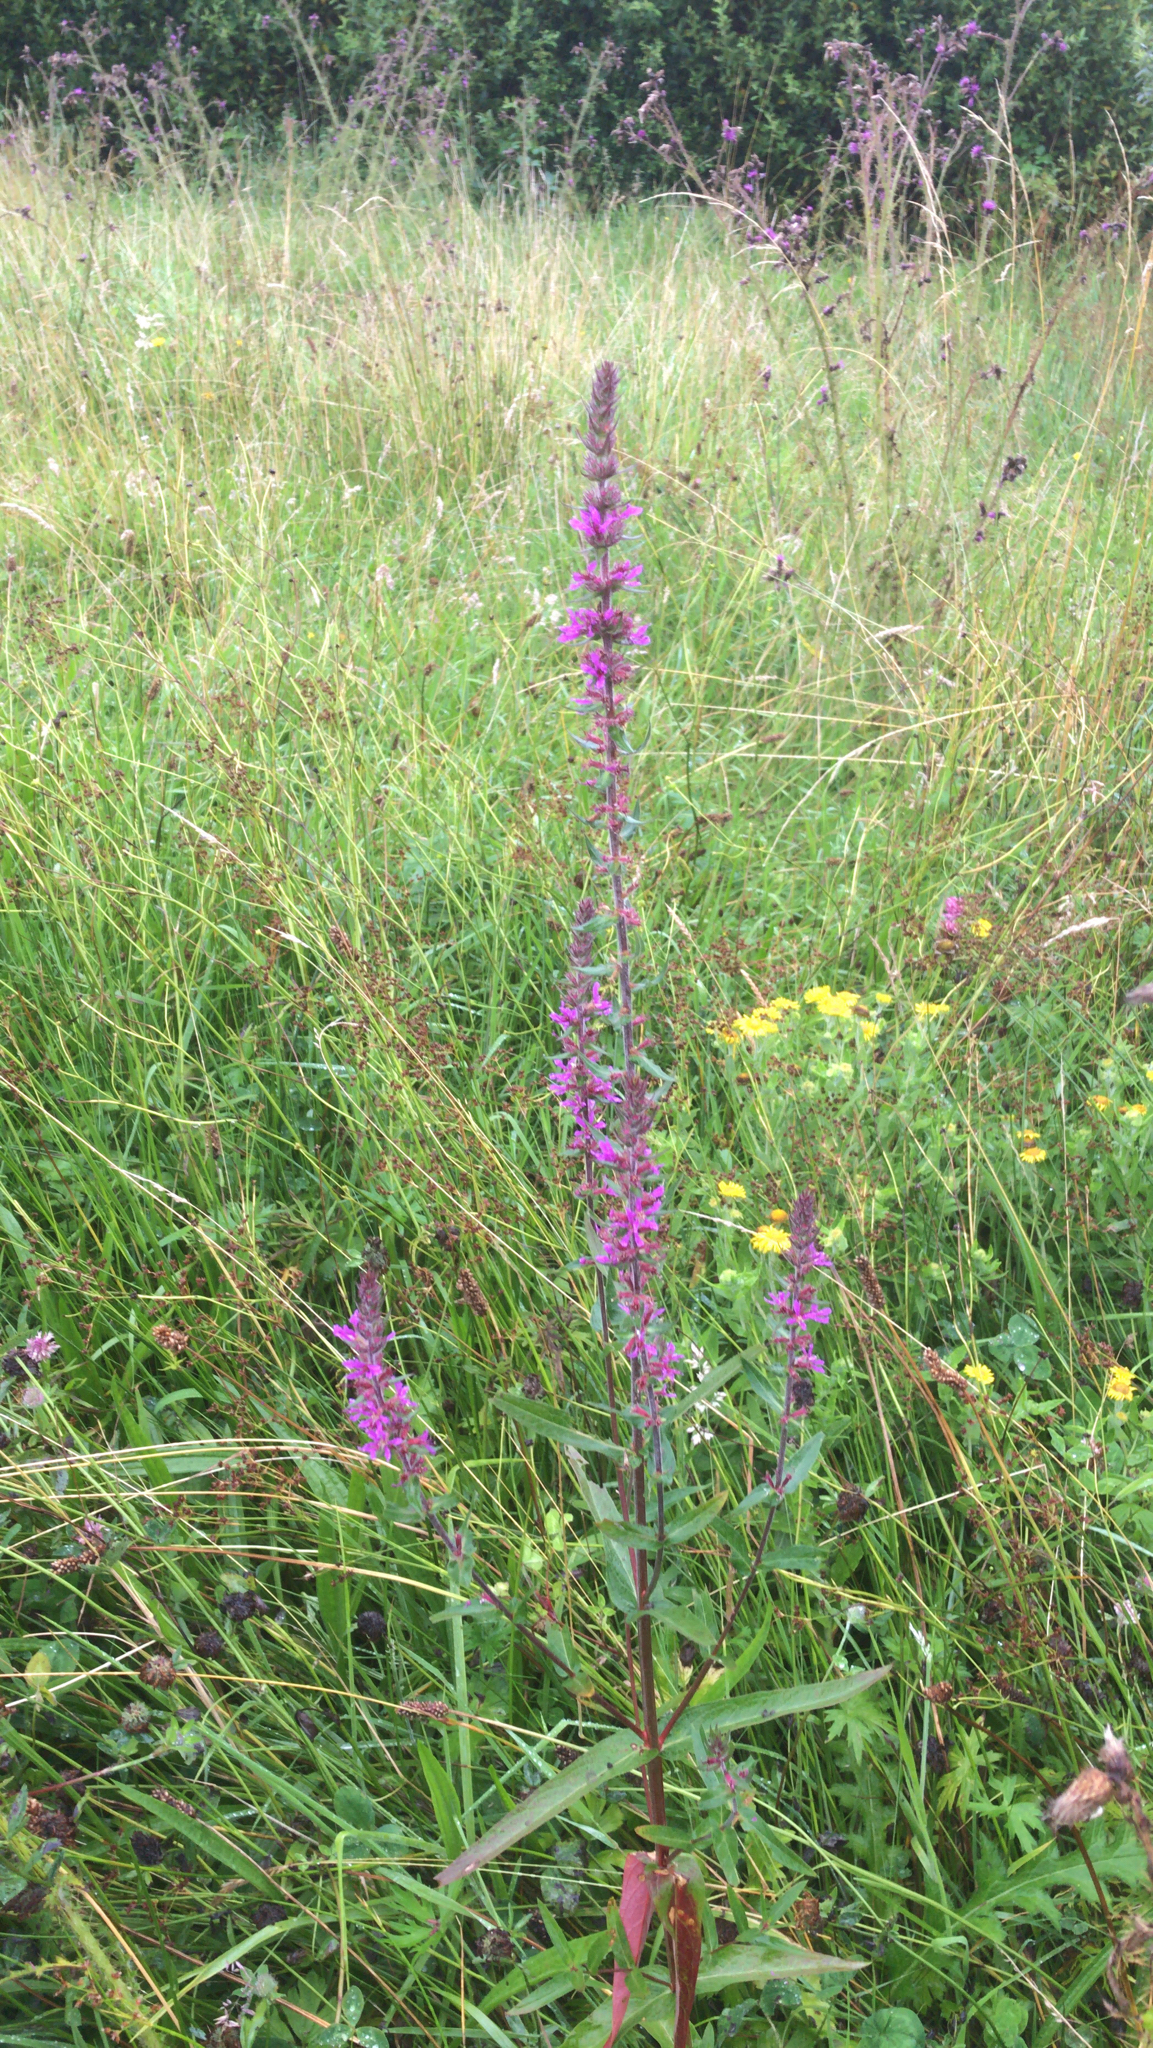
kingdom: Plantae
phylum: Tracheophyta
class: Magnoliopsida
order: Myrtales
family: Lythraceae
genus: Lythrum
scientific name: Lythrum salicaria
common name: Purple loosestrife
